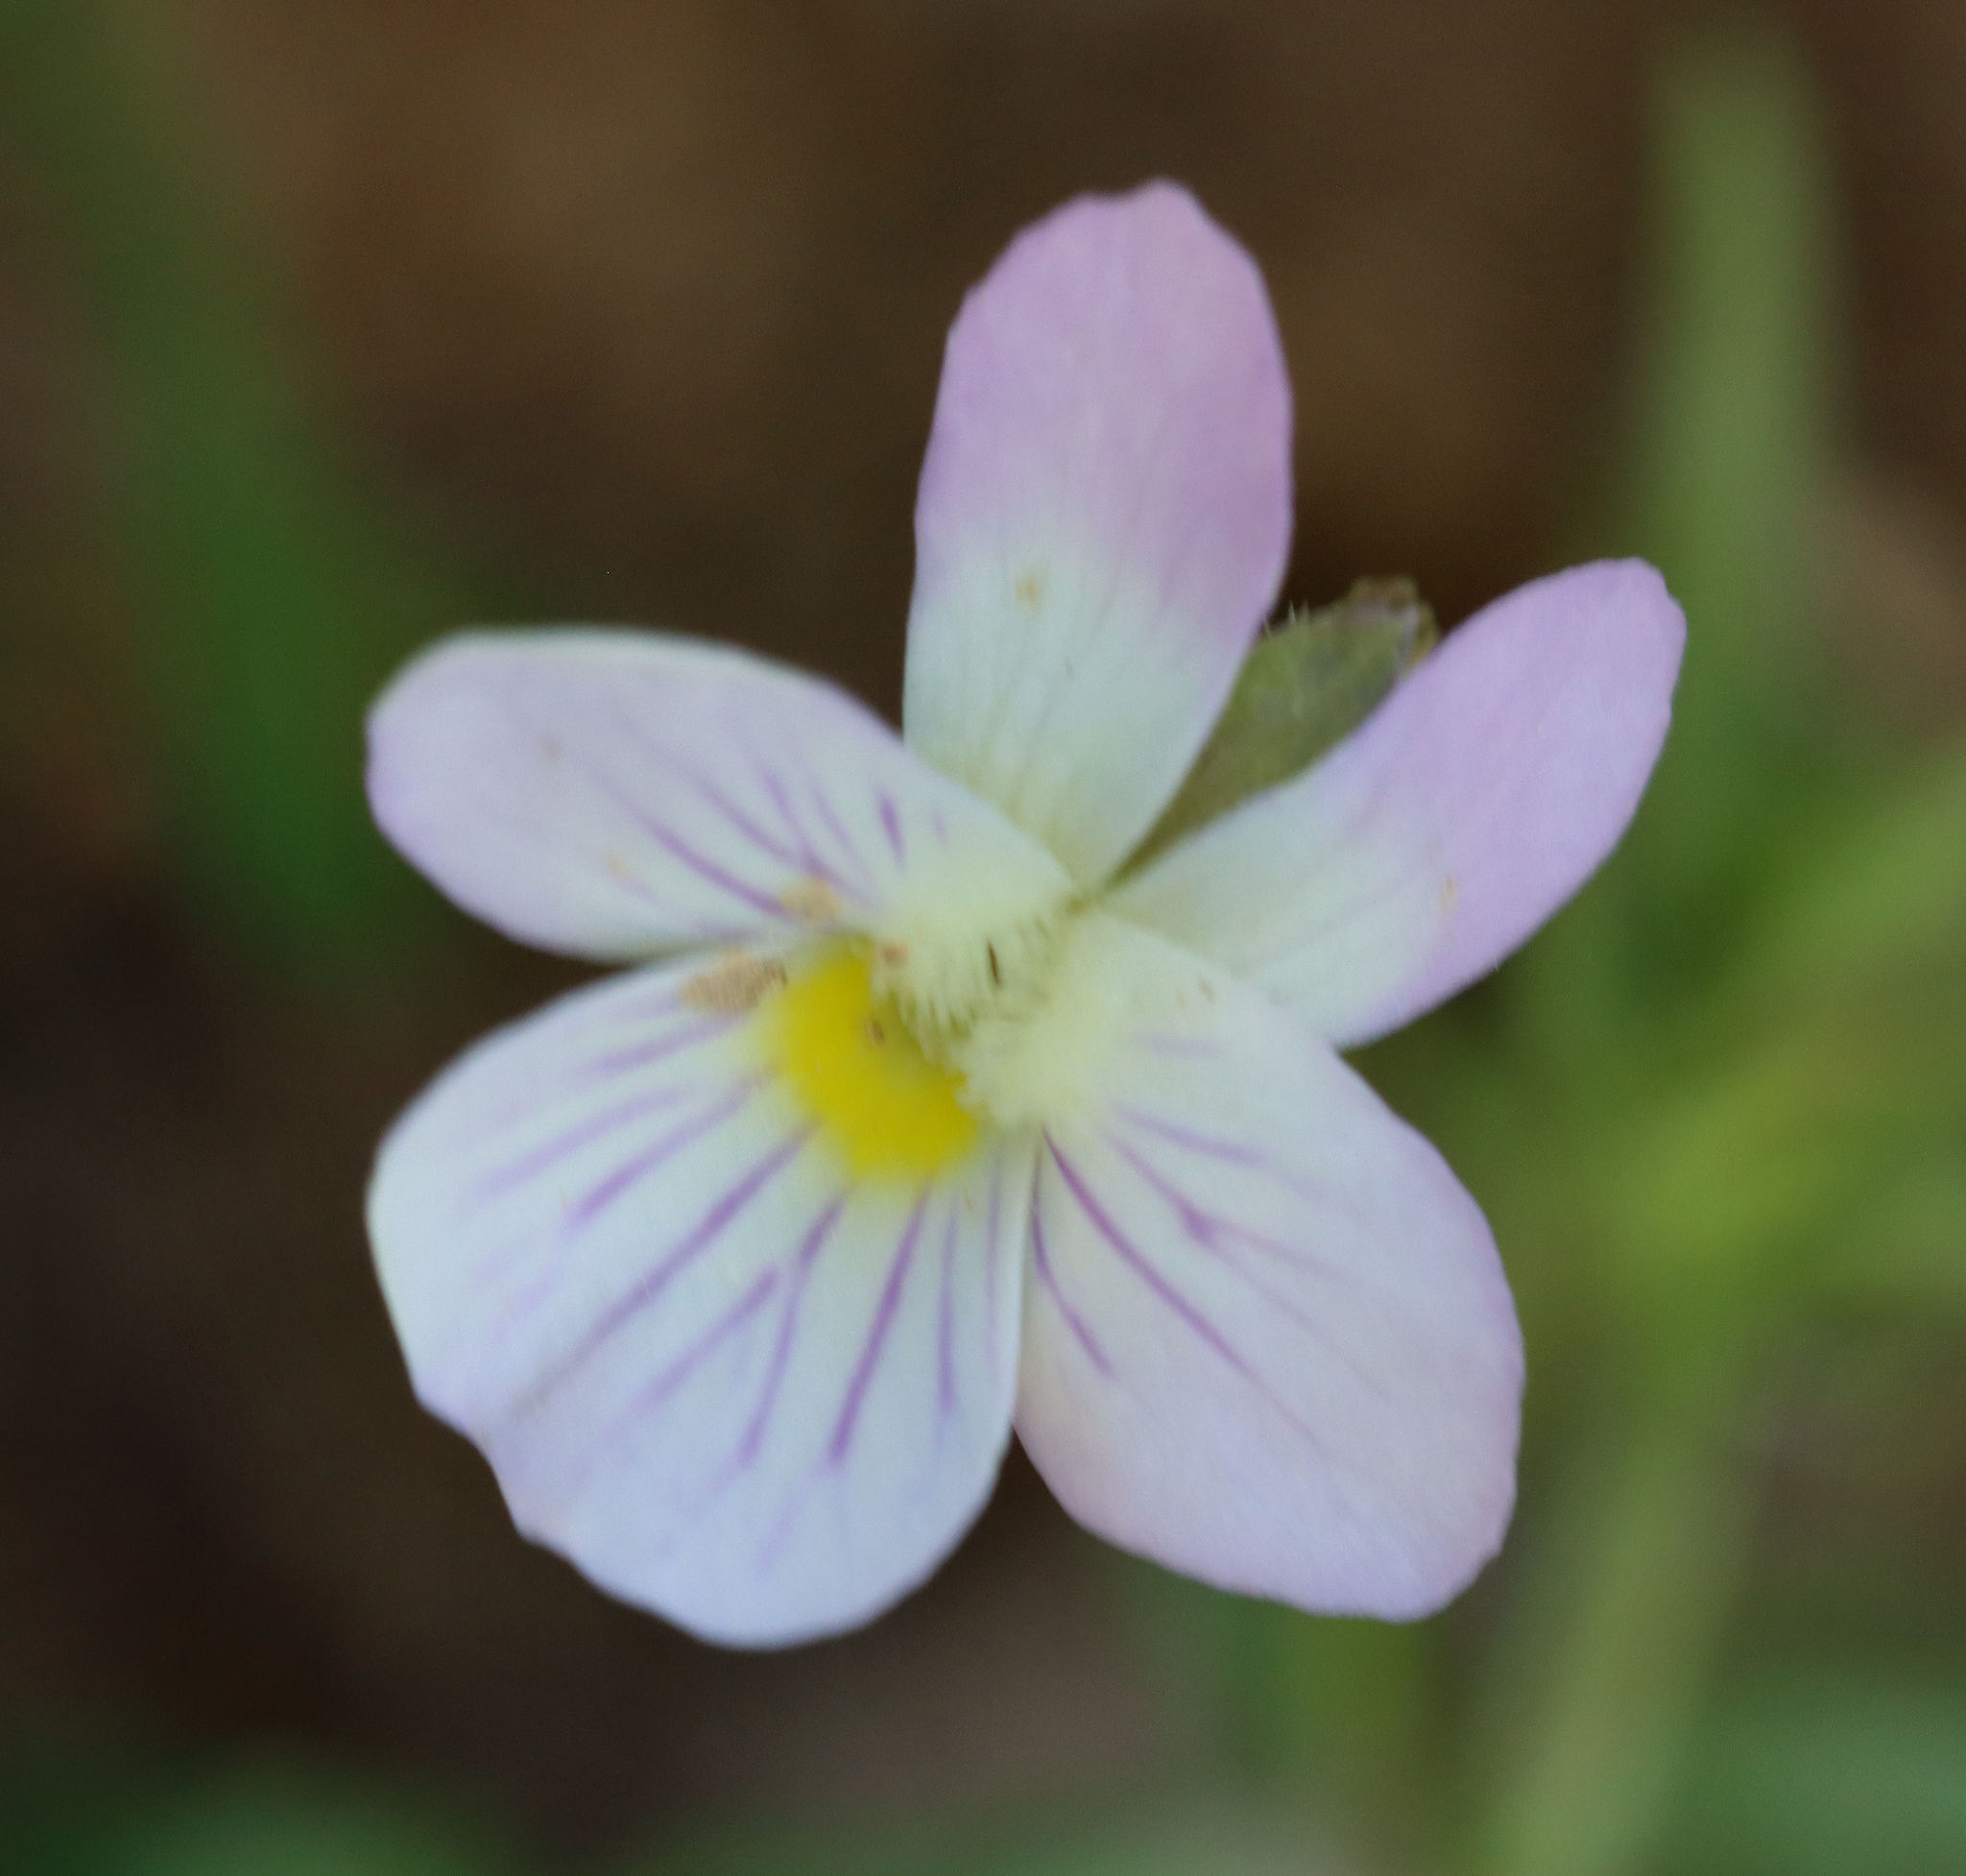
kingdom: Plantae
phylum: Tracheophyta
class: Magnoliopsida
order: Malpighiales
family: Violaceae
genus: Viola
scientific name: Viola rafinesquei
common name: American field pansy
